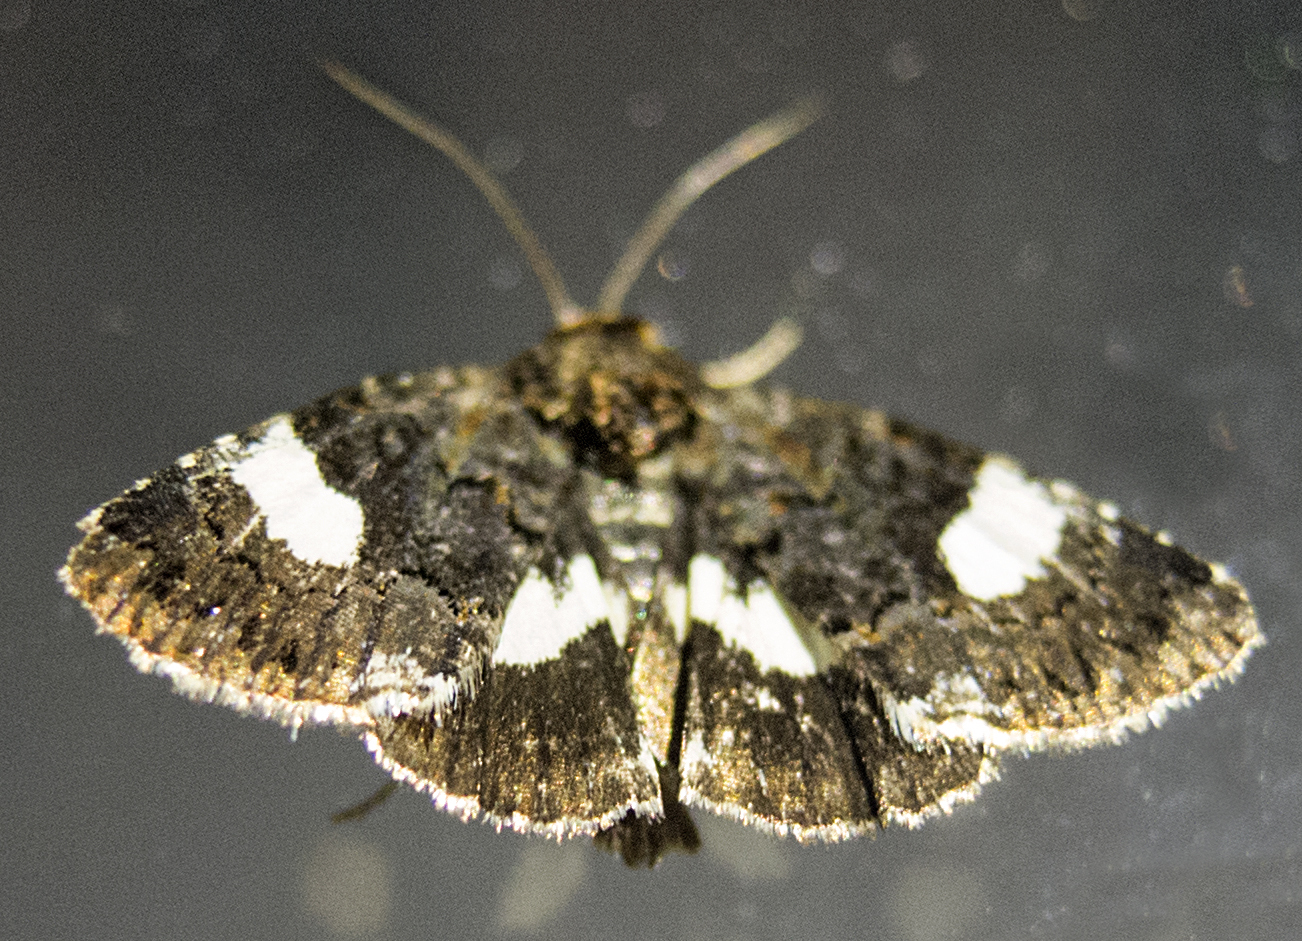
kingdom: Animalia
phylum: Arthropoda
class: Insecta
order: Lepidoptera
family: Erebidae
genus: Tyta
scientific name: Tyta luctuosa
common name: Four-spotted
